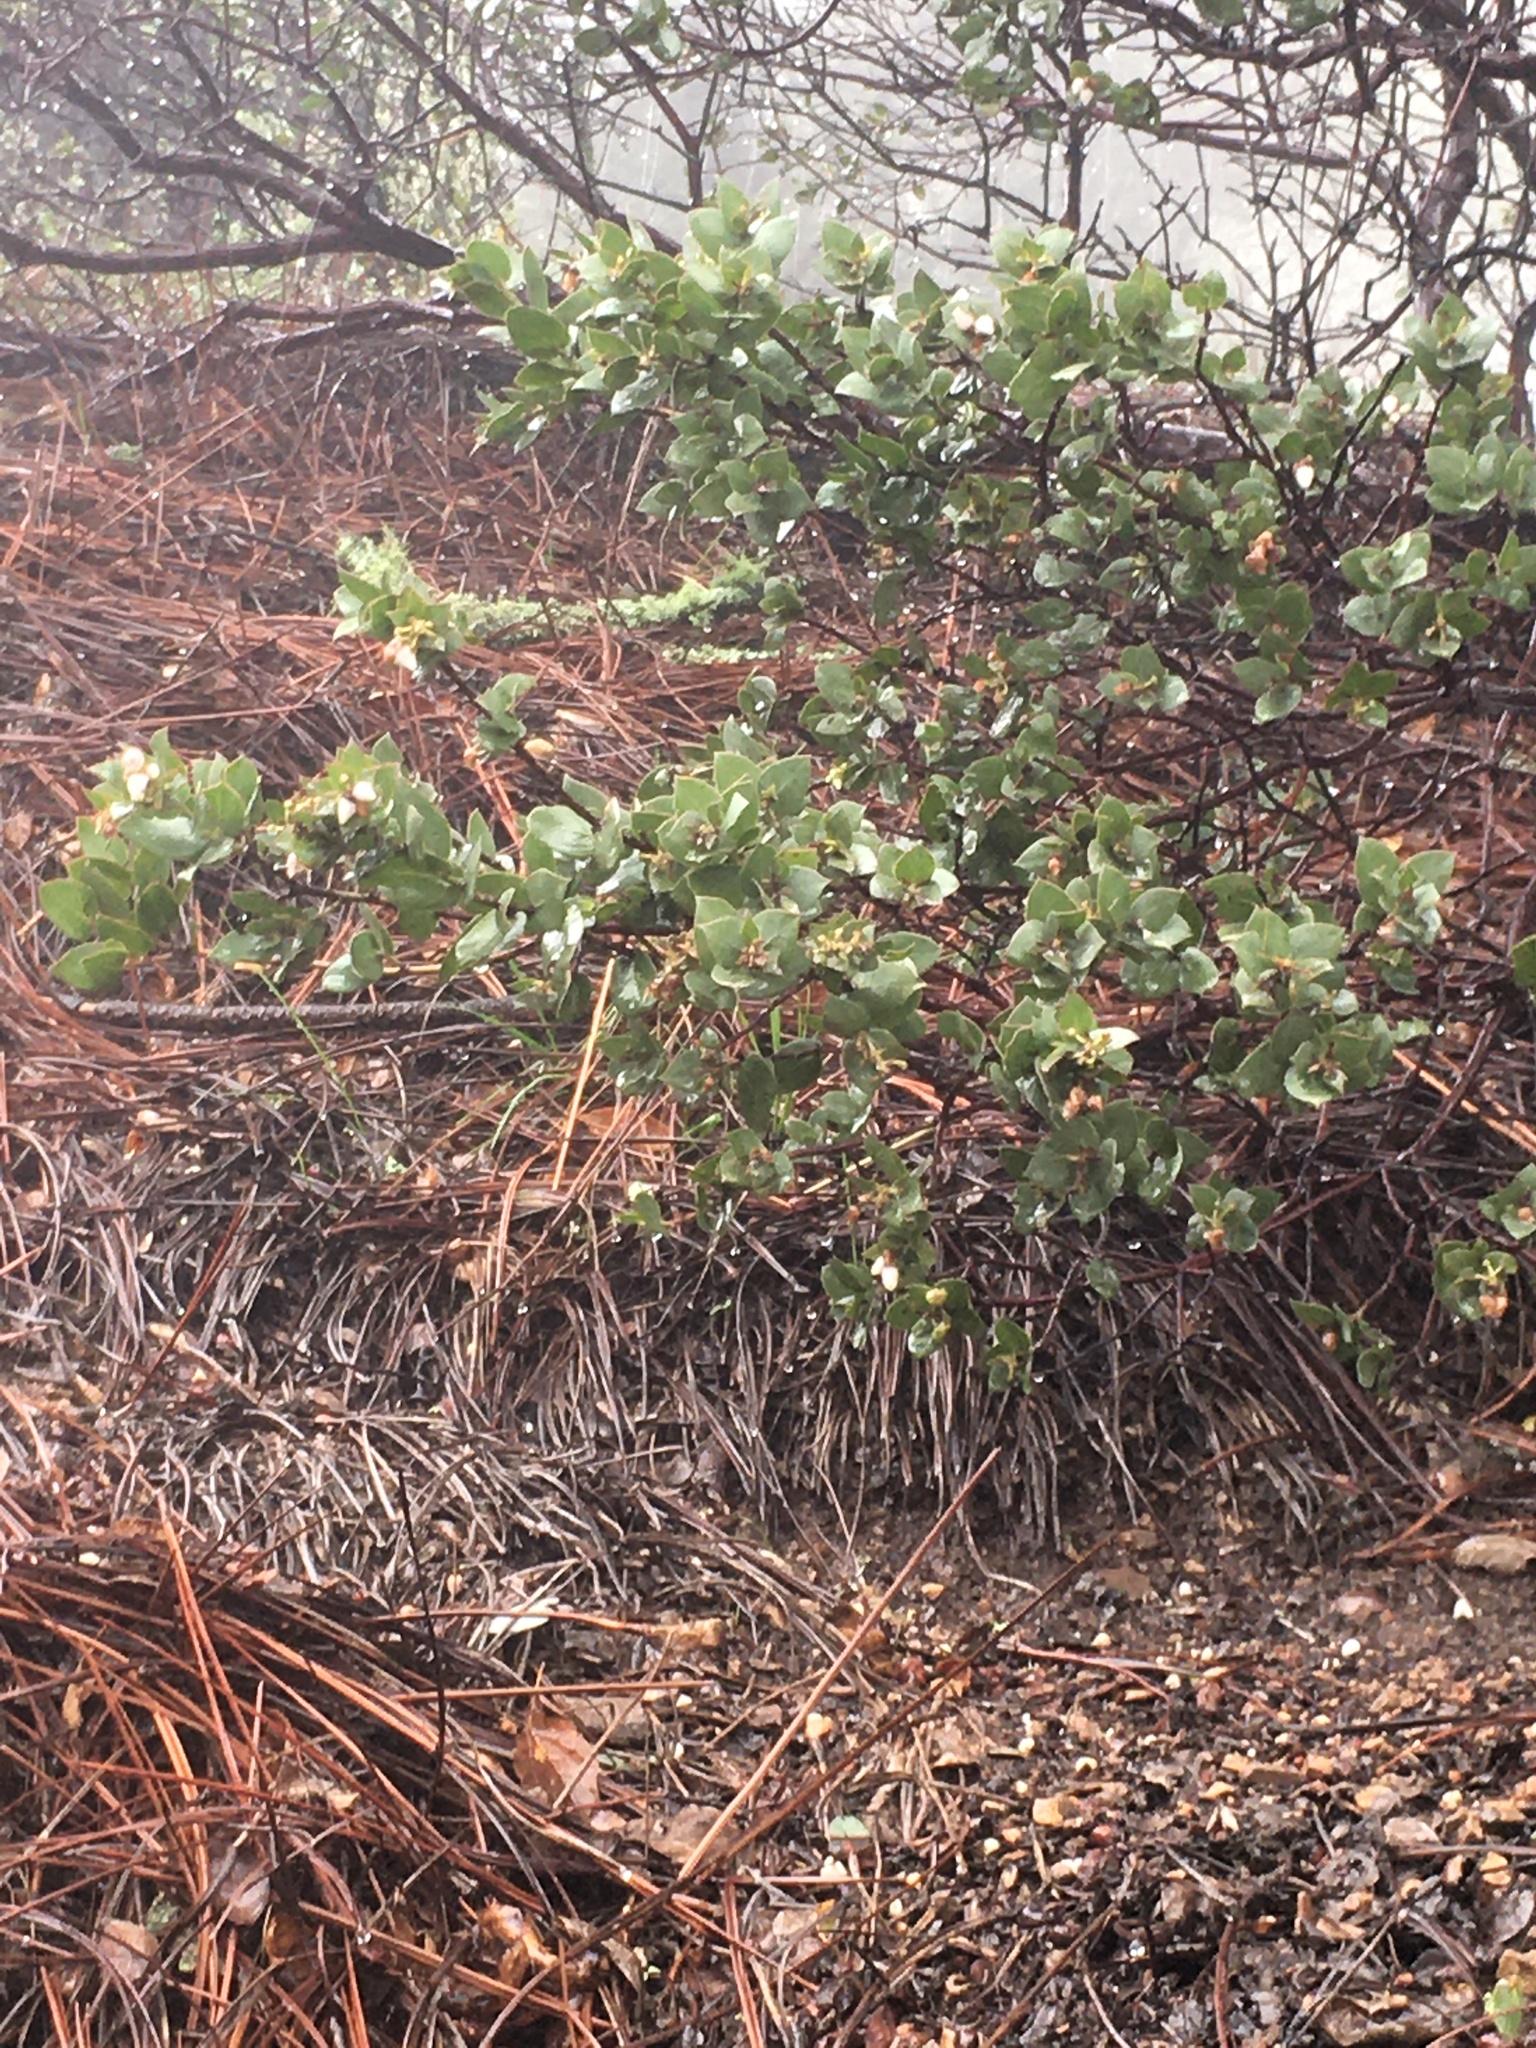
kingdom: Plantae
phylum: Tracheophyta
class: Magnoliopsida
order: Ericales
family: Ericaceae
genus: Arctostaphylos
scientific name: Arctostaphylos luciana
